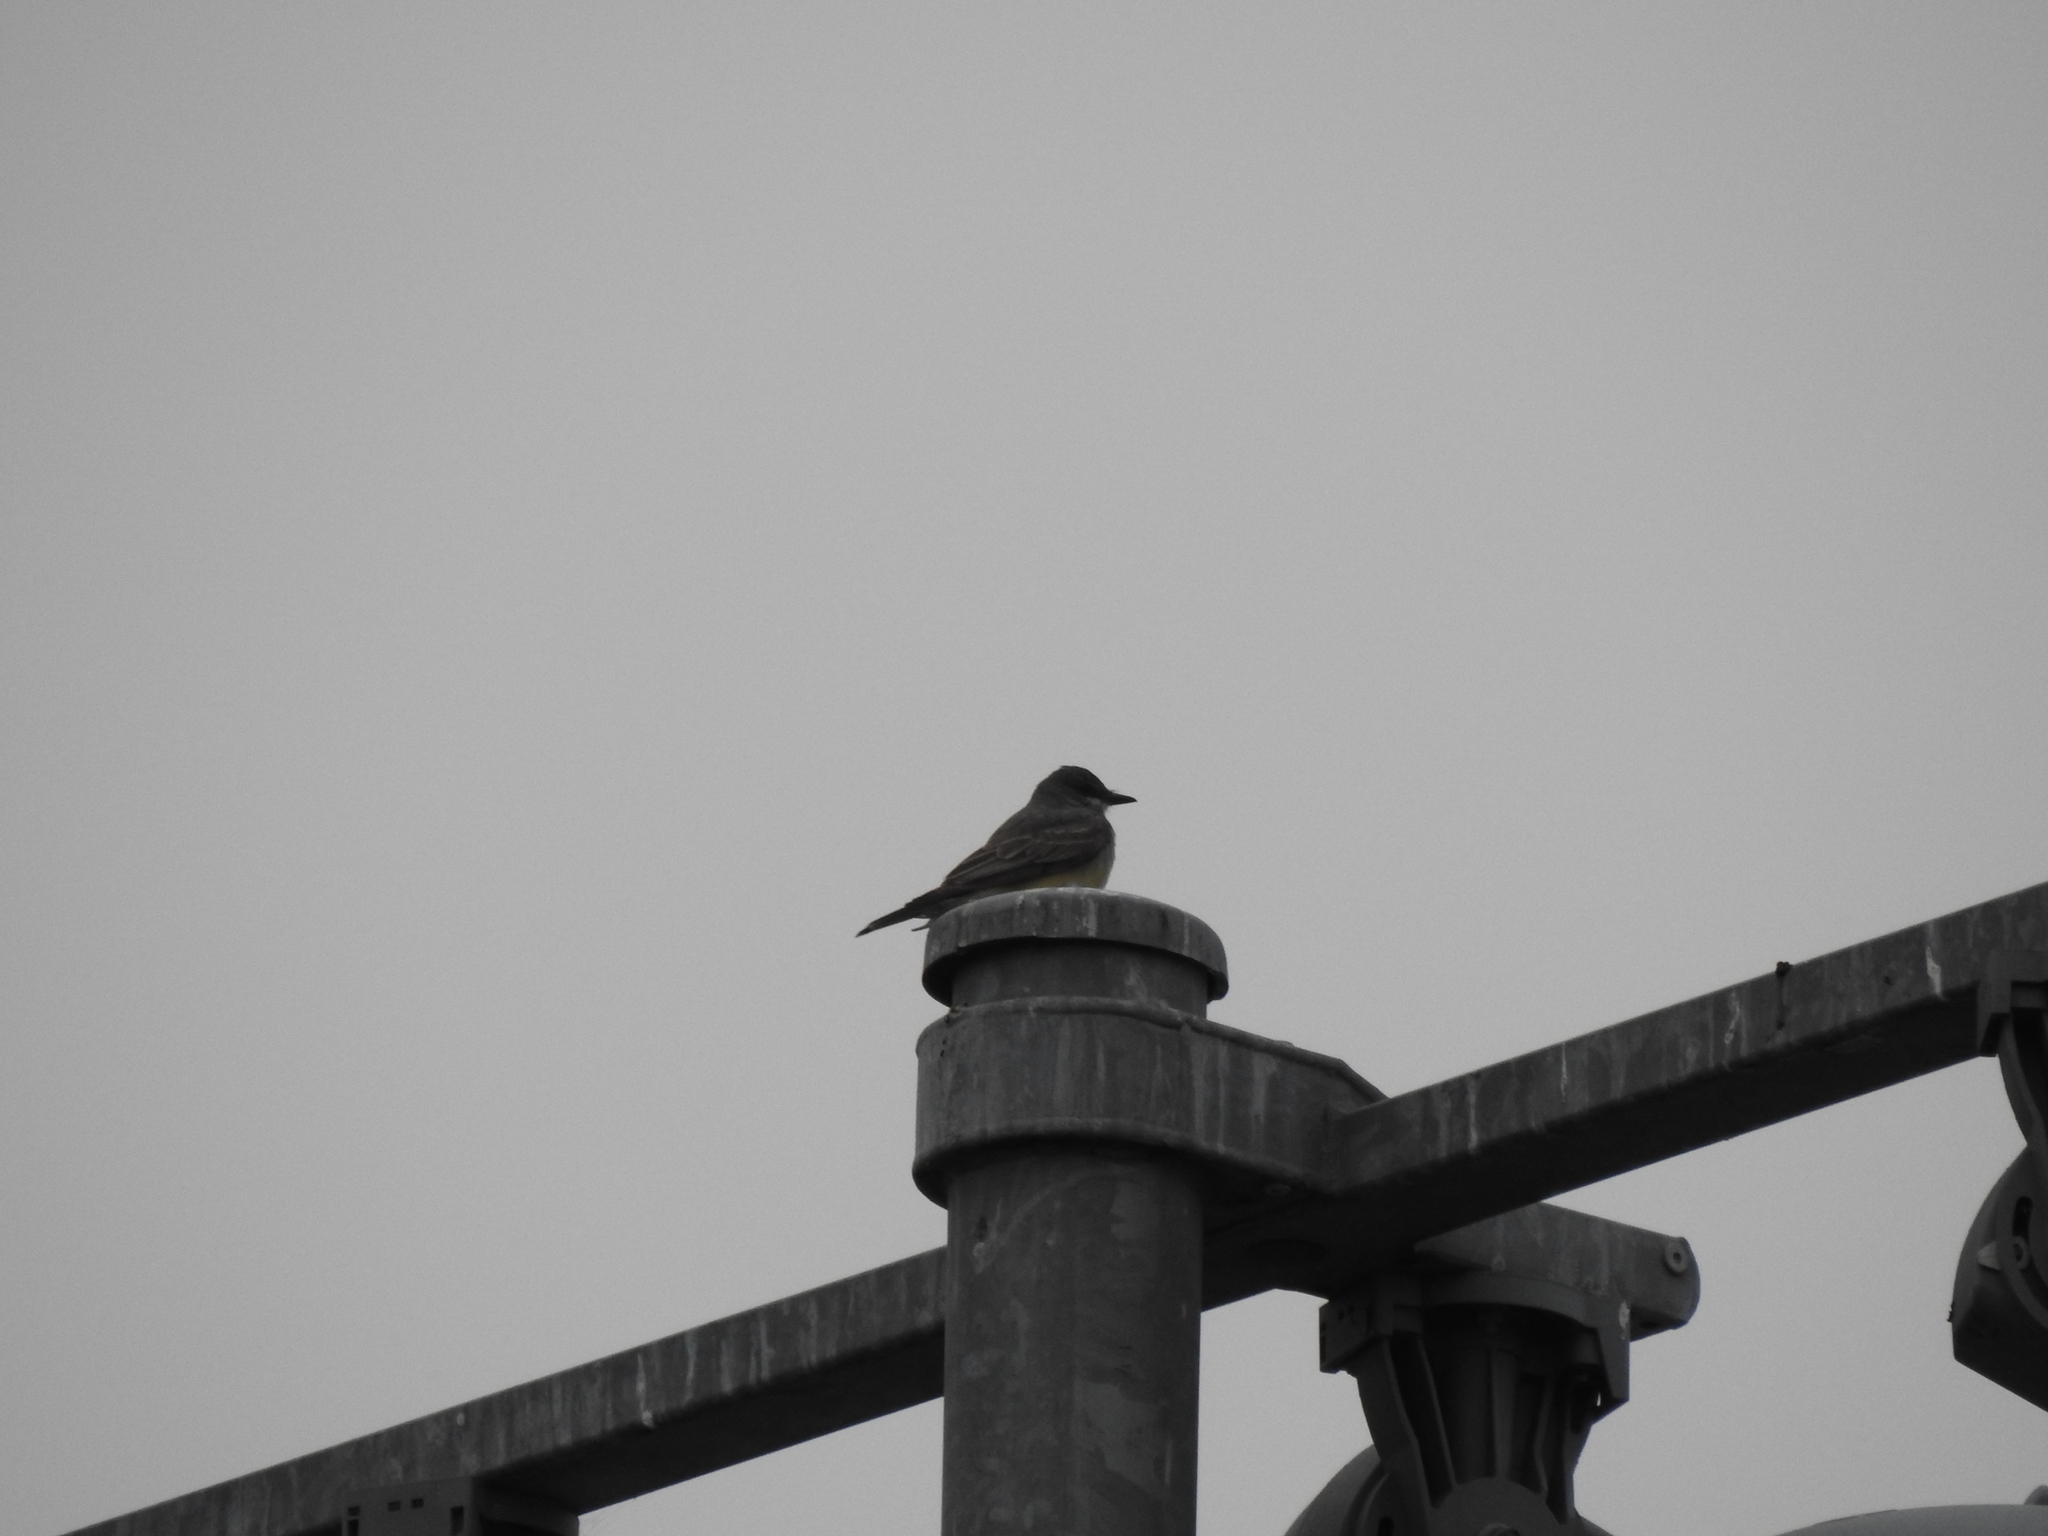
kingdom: Animalia
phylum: Chordata
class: Aves
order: Passeriformes
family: Tyrannidae
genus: Tyrannus
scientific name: Tyrannus vociferans
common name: Cassin's kingbird
